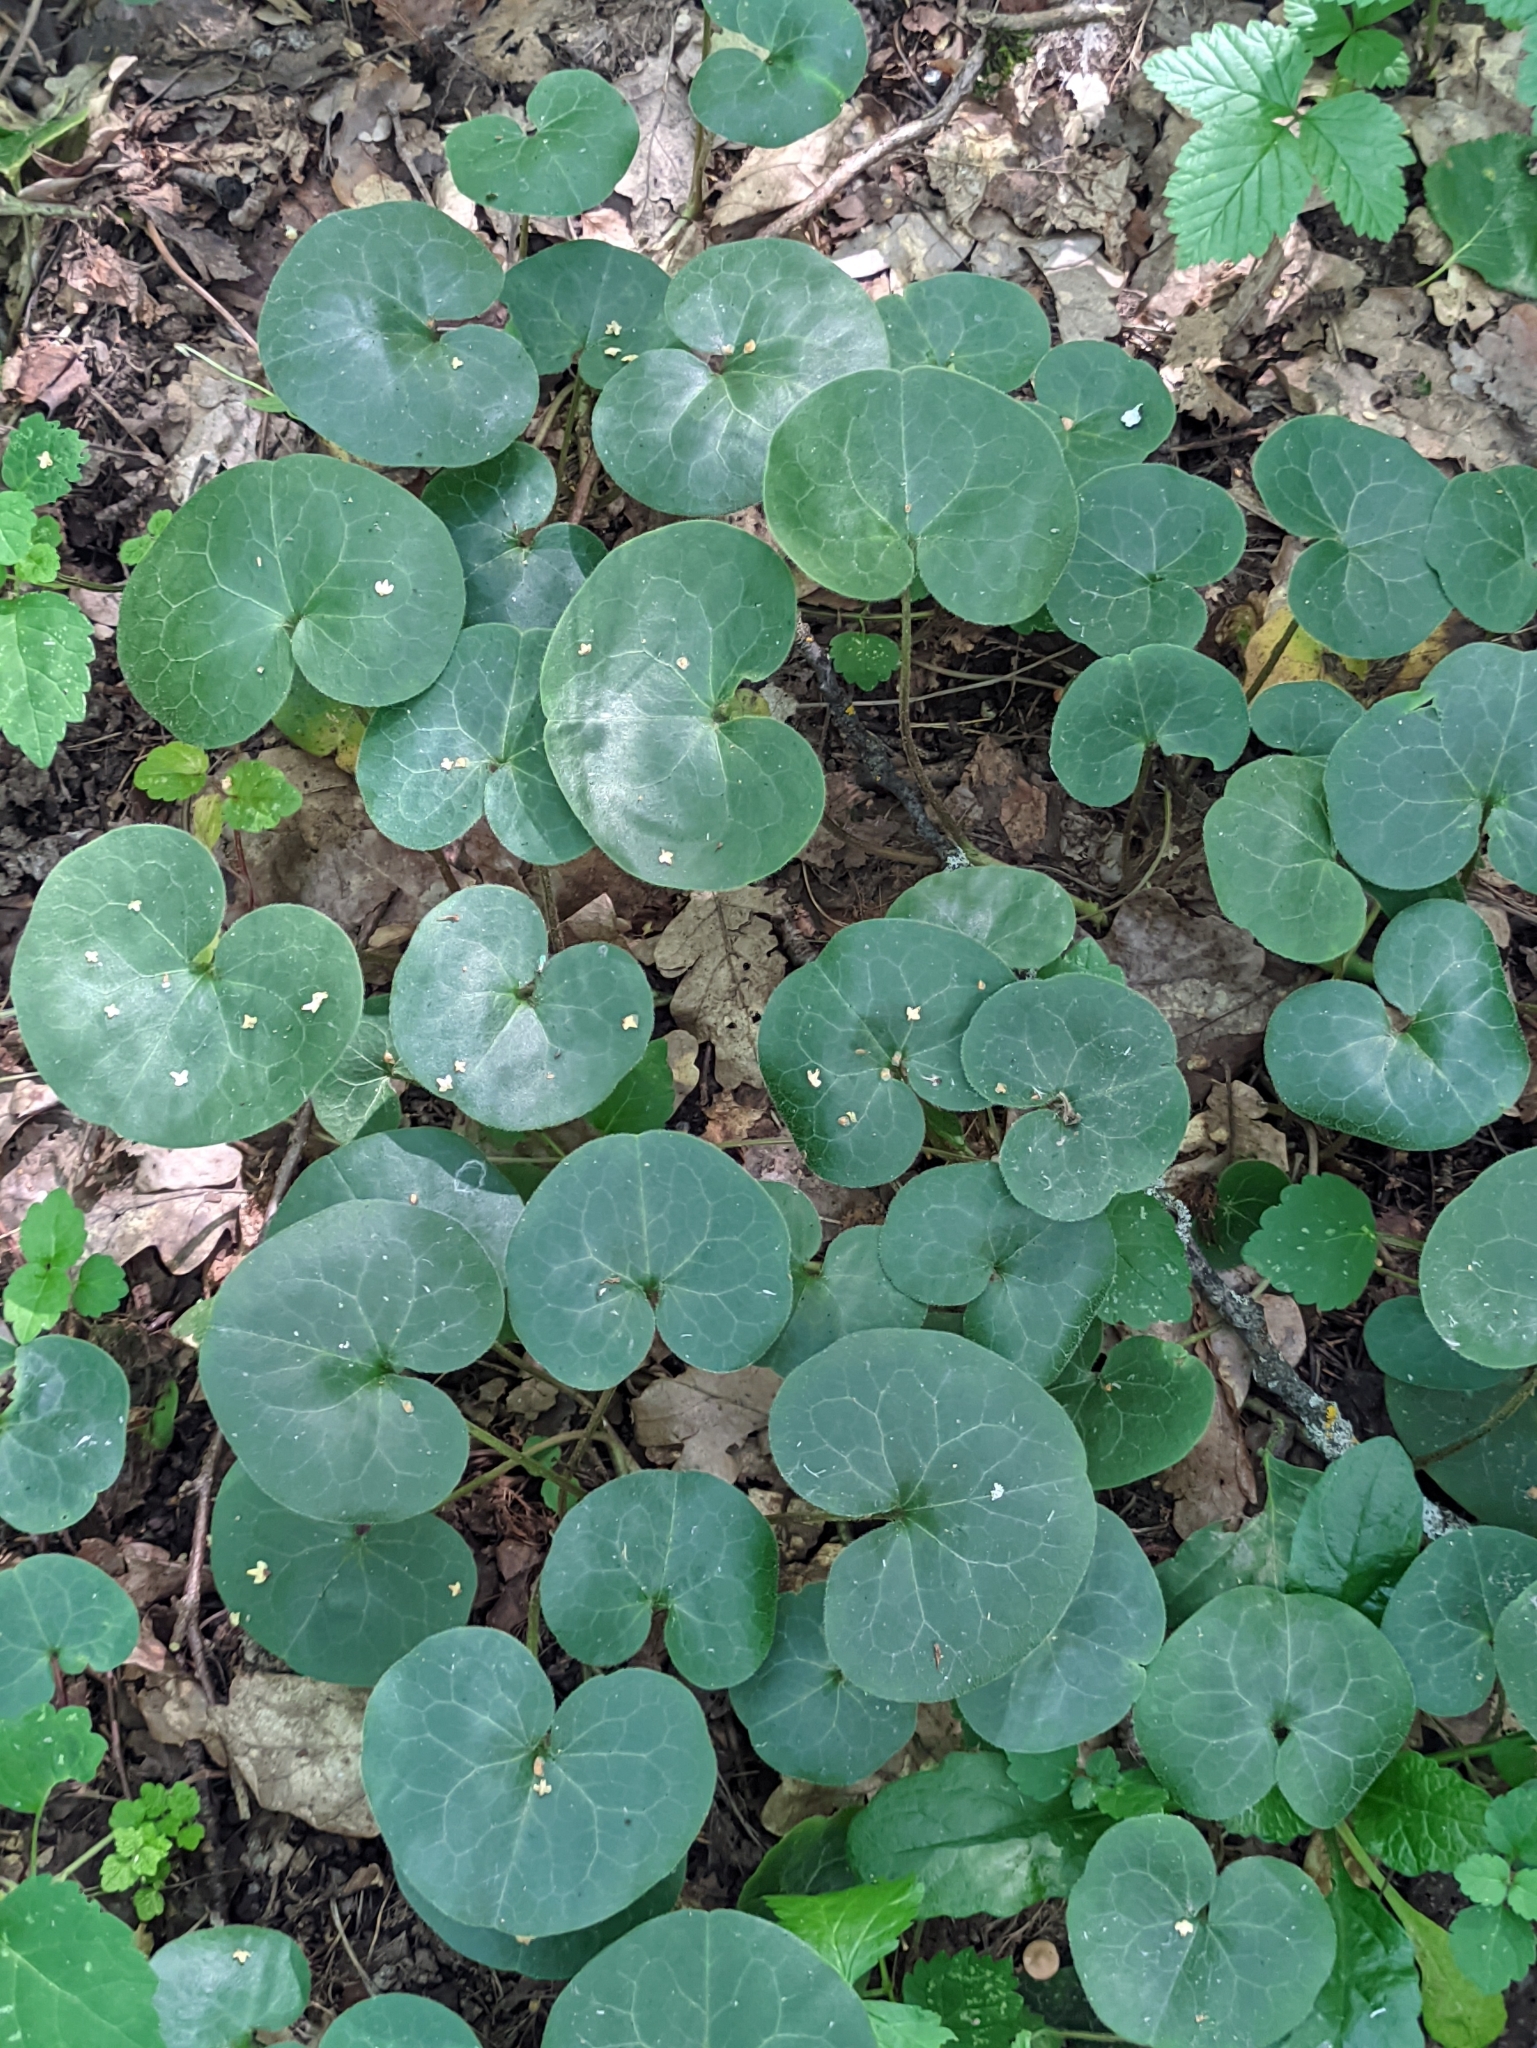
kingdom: Plantae
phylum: Tracheophyta
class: Magnoliopsida
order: Piperales
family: Aristolochiaceae
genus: Asarum
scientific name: Asarum europaeum
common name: Asarabacca
